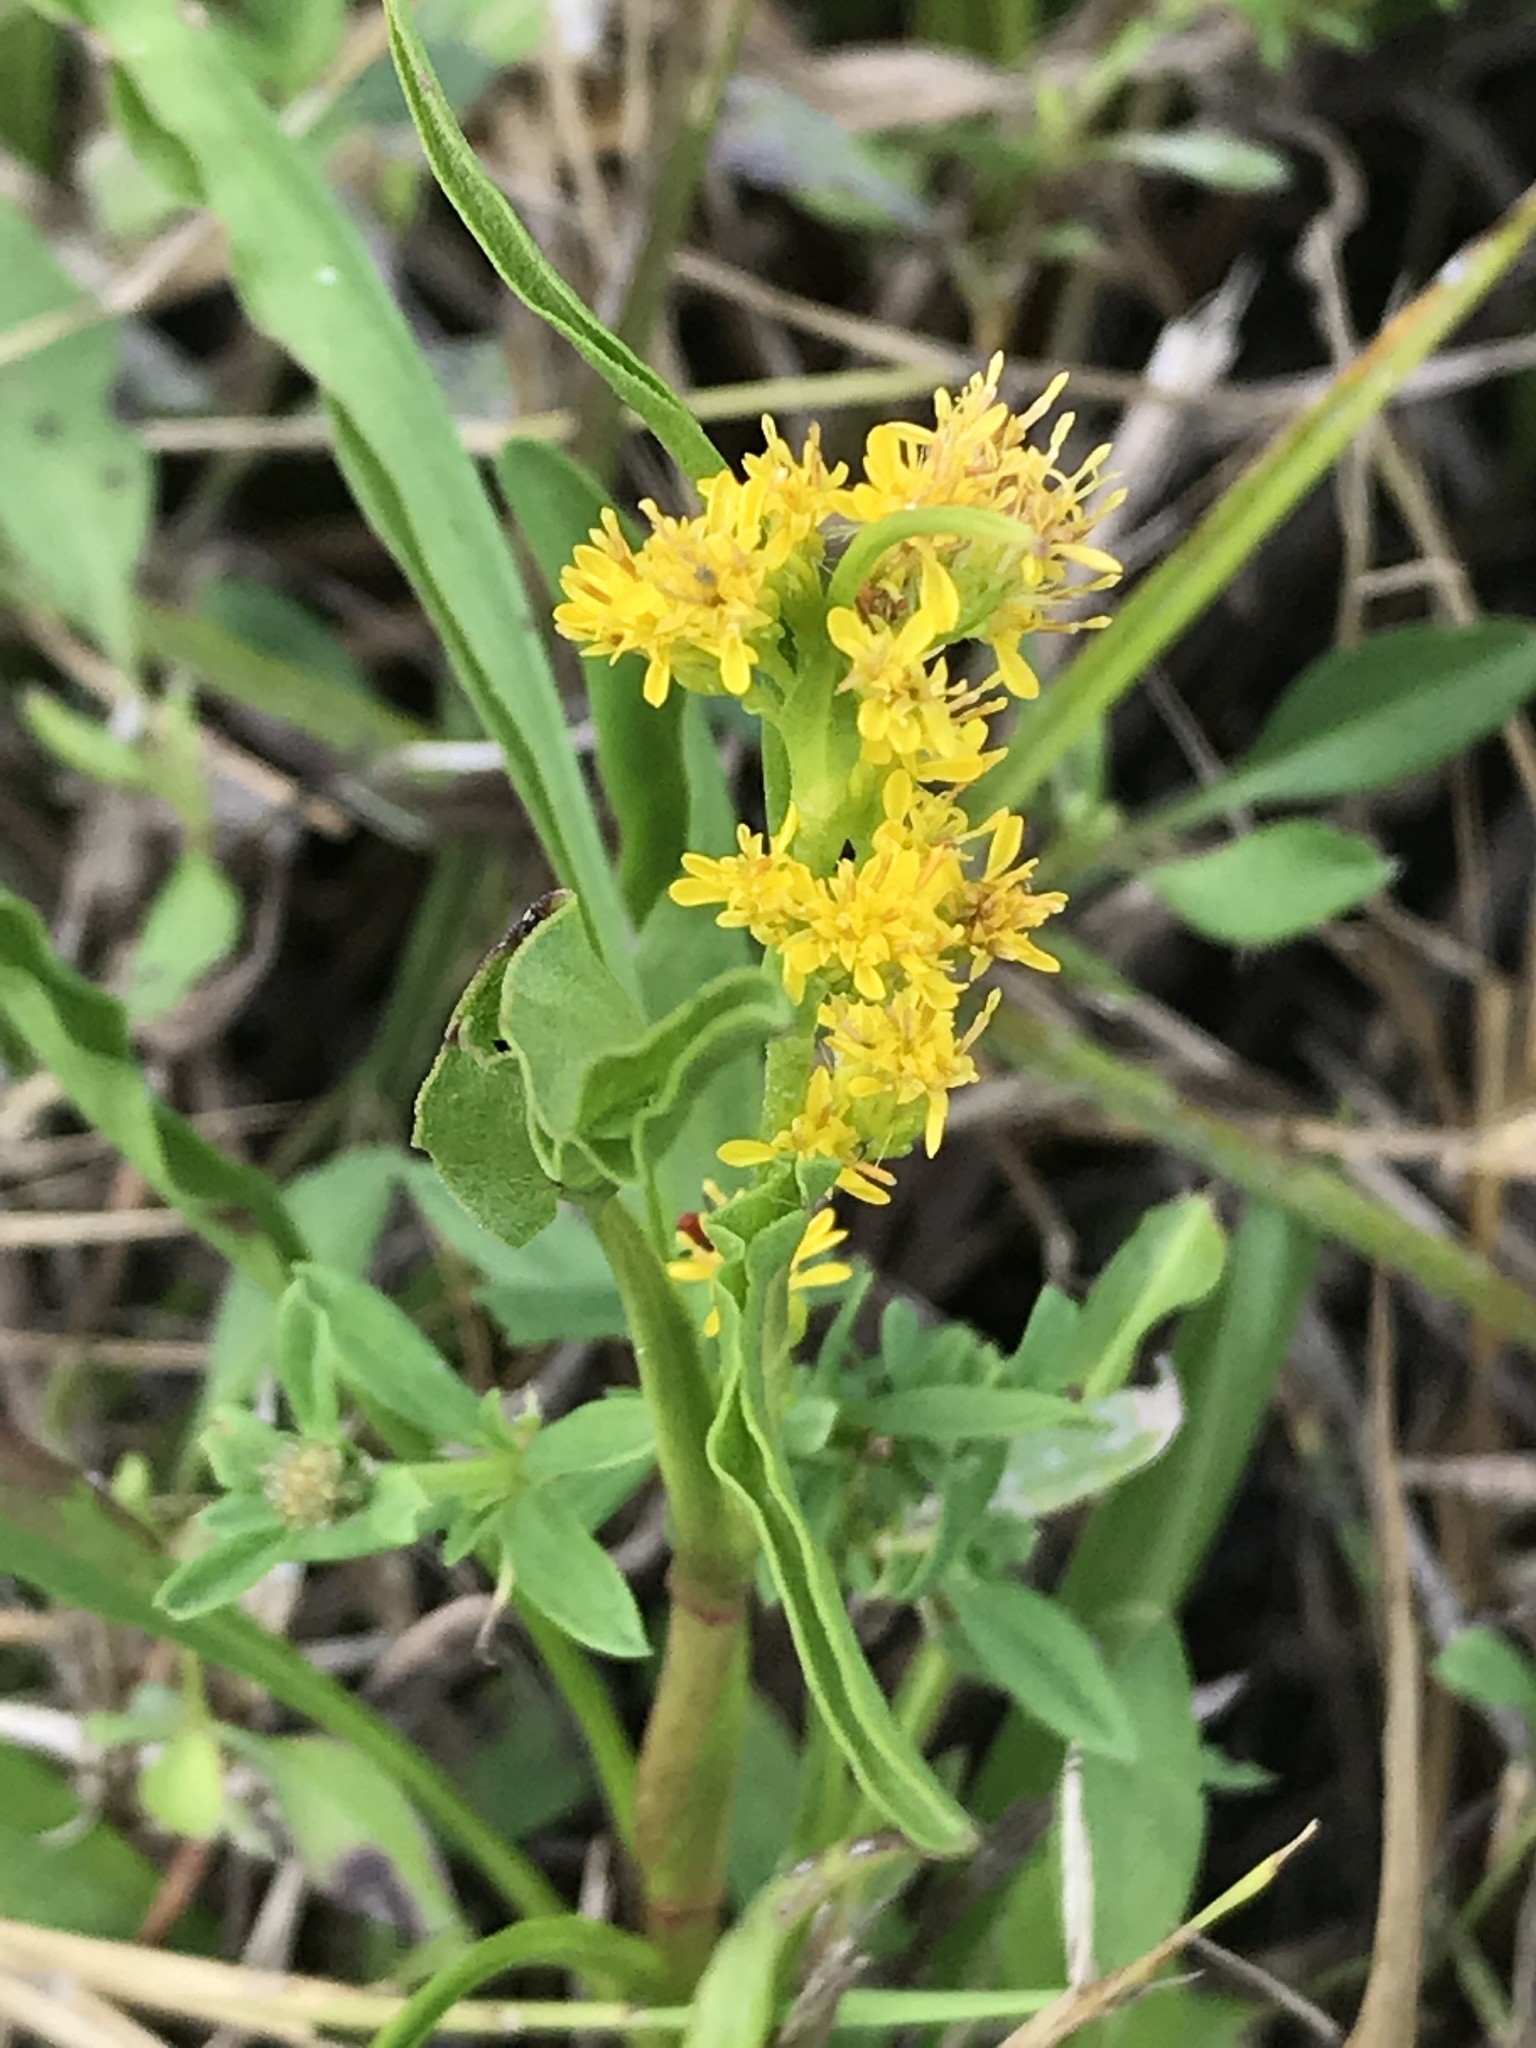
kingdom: Plantae
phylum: Tracheophyta
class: Magnoliopsida
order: Asterales
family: Asteraceae
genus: Solidago
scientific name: Solidago mexicana
